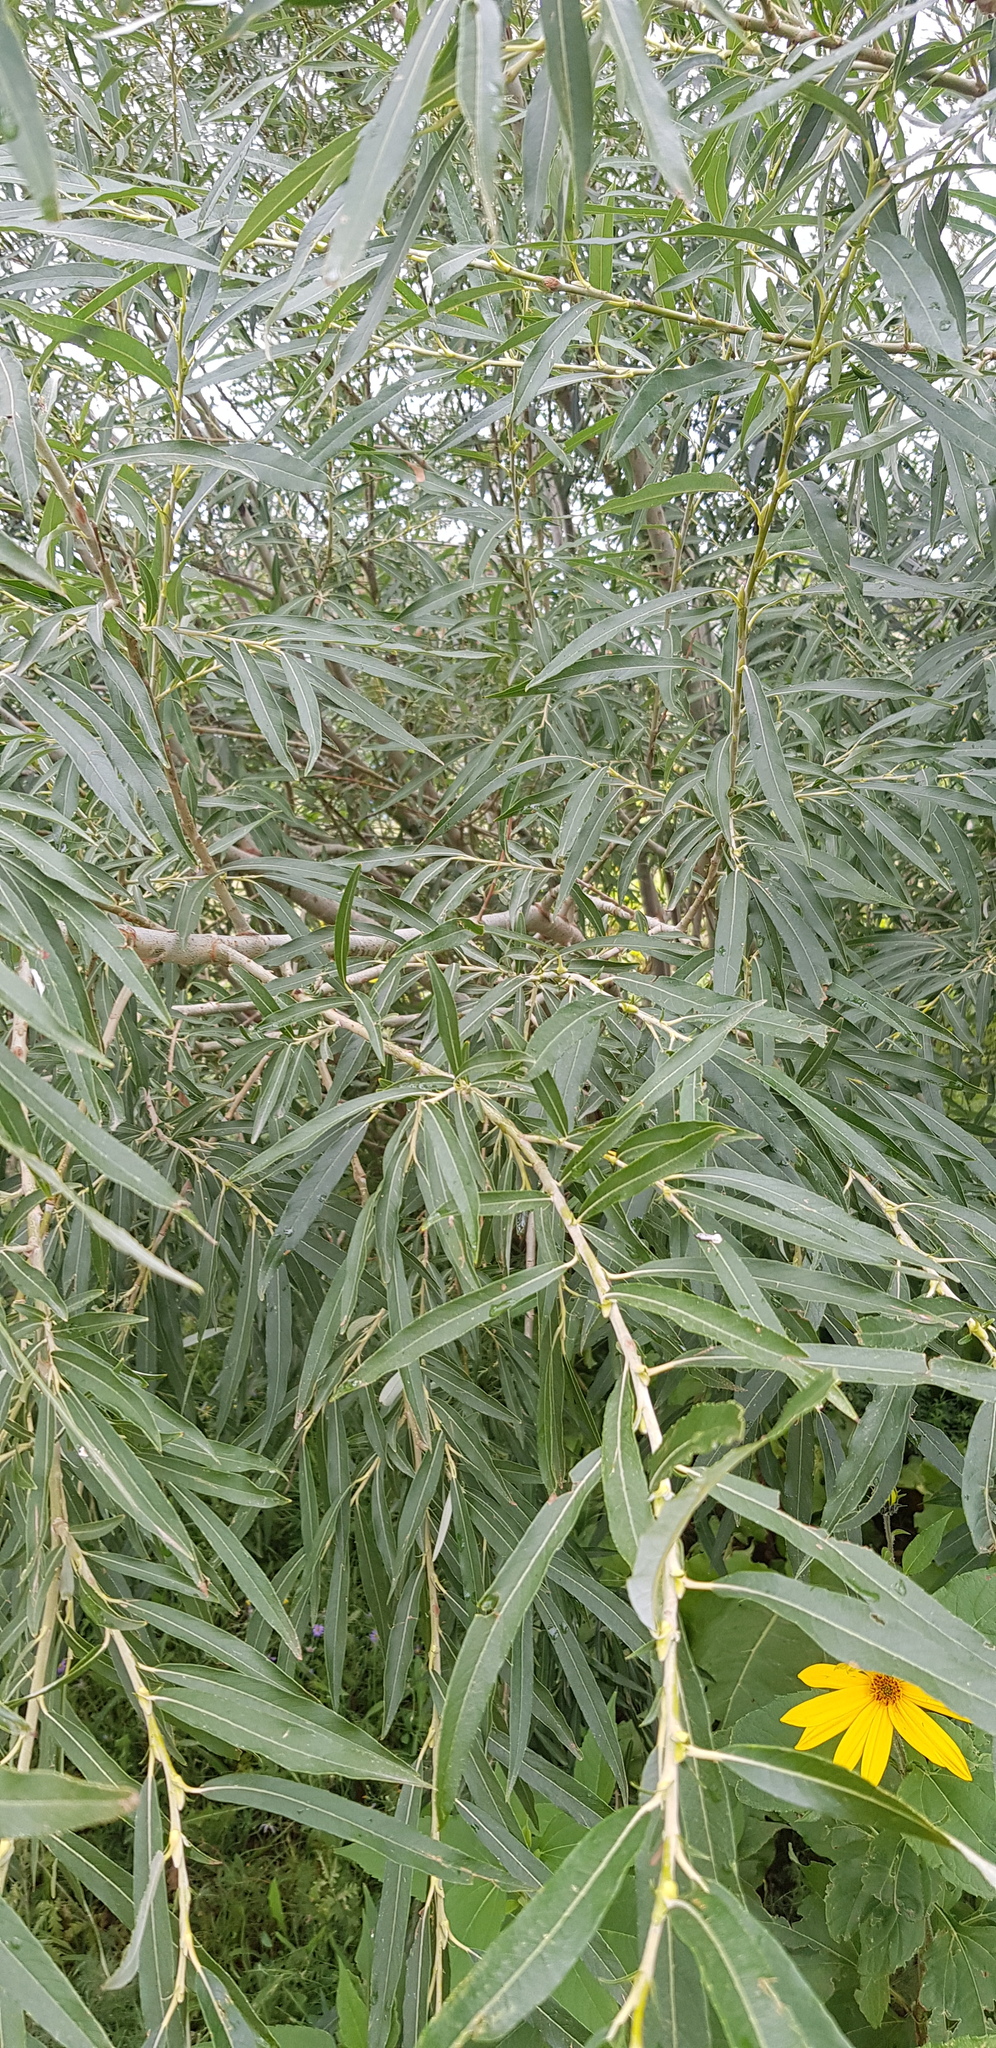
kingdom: Plantae
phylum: Tracheophyta
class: Magnoliopsida
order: Malpighiales
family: Salicaceae
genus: Salix
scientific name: Salix viminalis
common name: Osier
